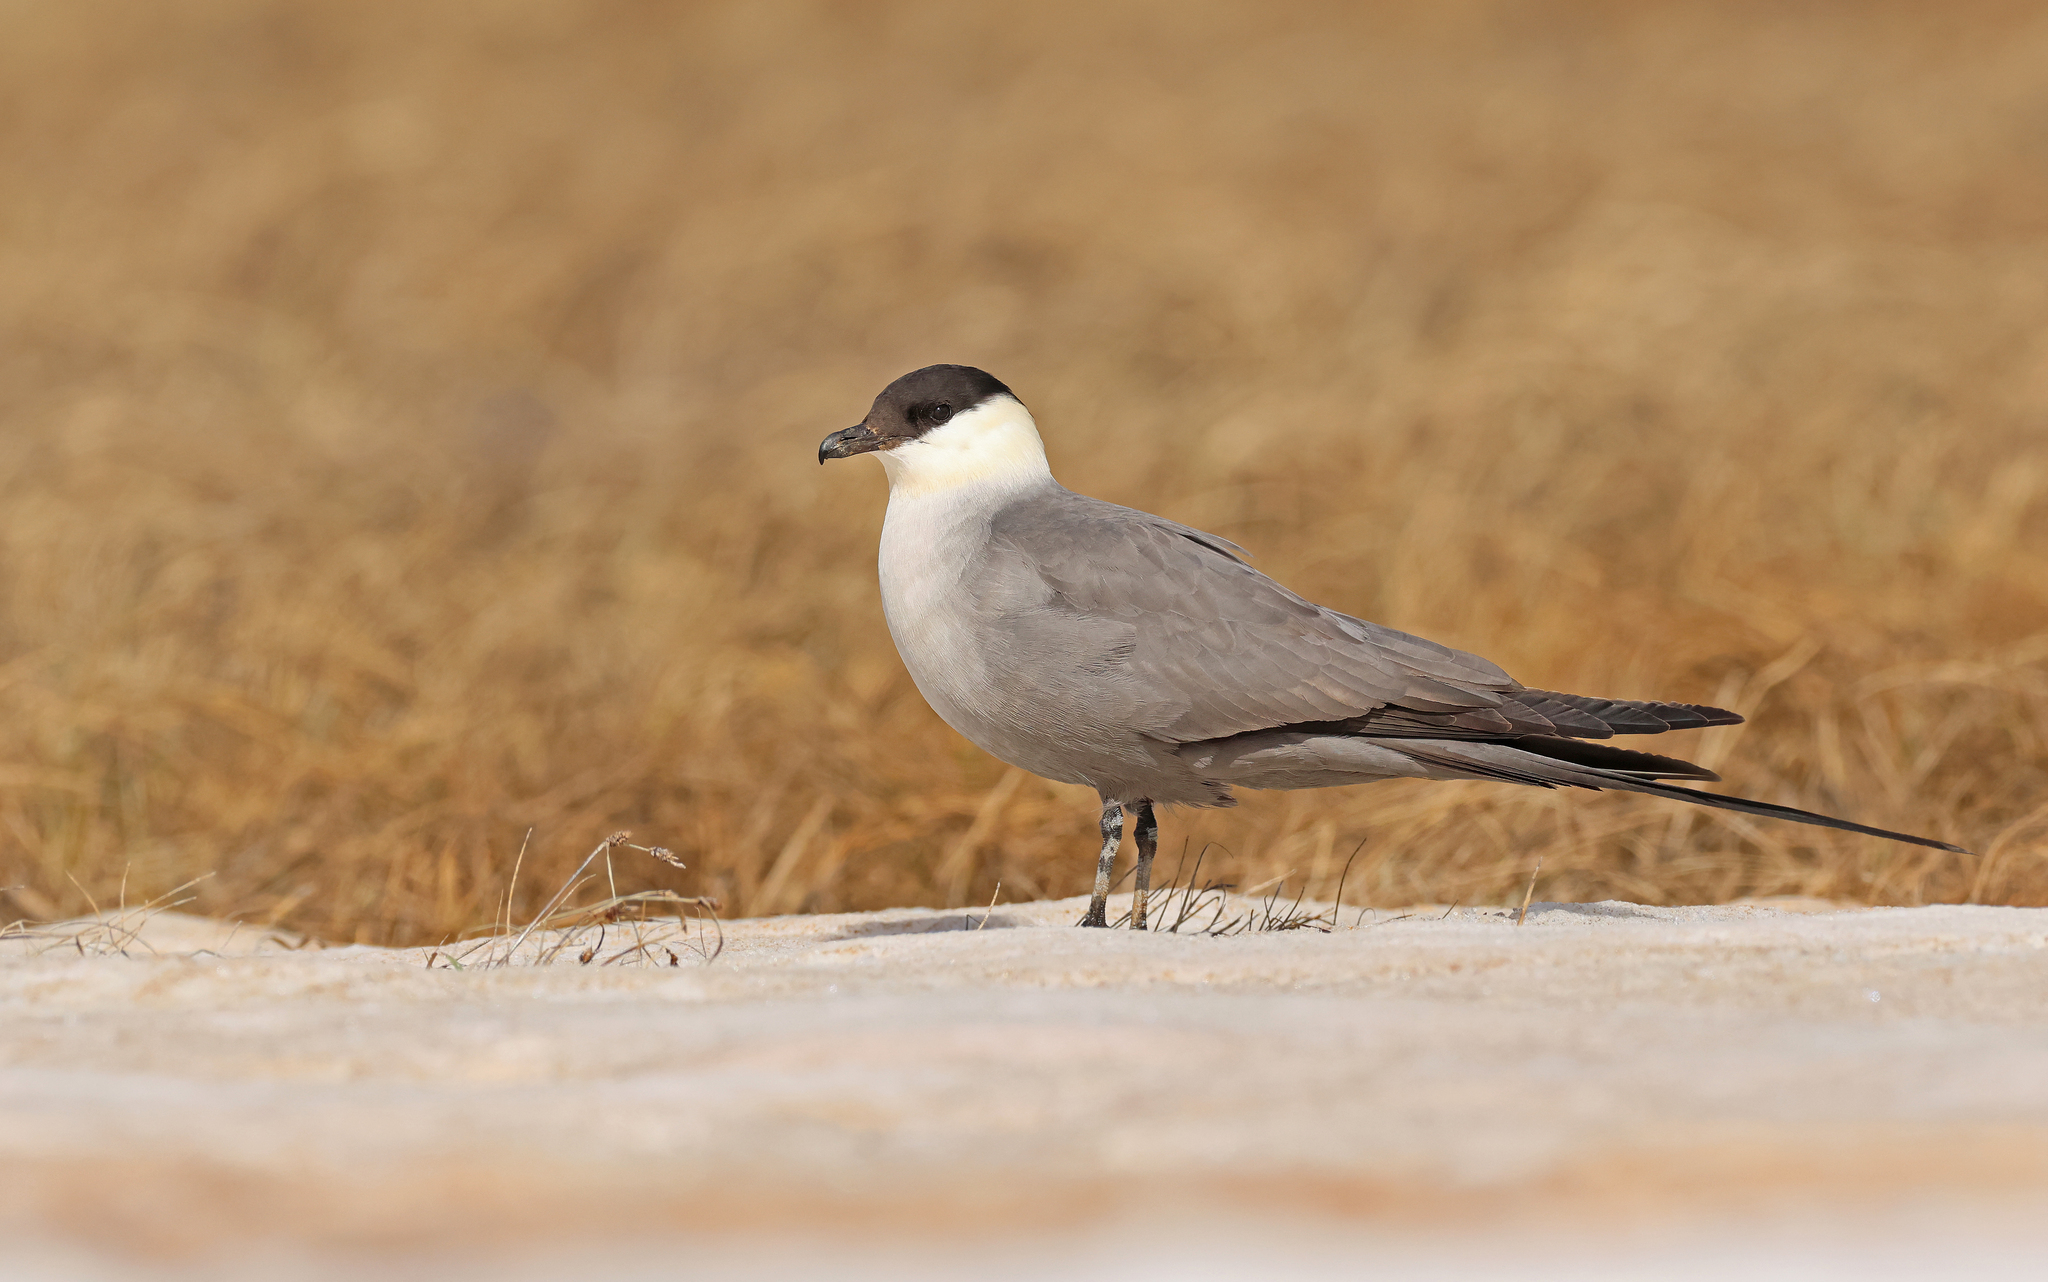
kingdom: Animalia
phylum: Chordata
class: Aves
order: Charadriiformes
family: Stercorariidae
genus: Stercorarius
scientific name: Stercorarius longicaudus
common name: Long-tailed jaeger
